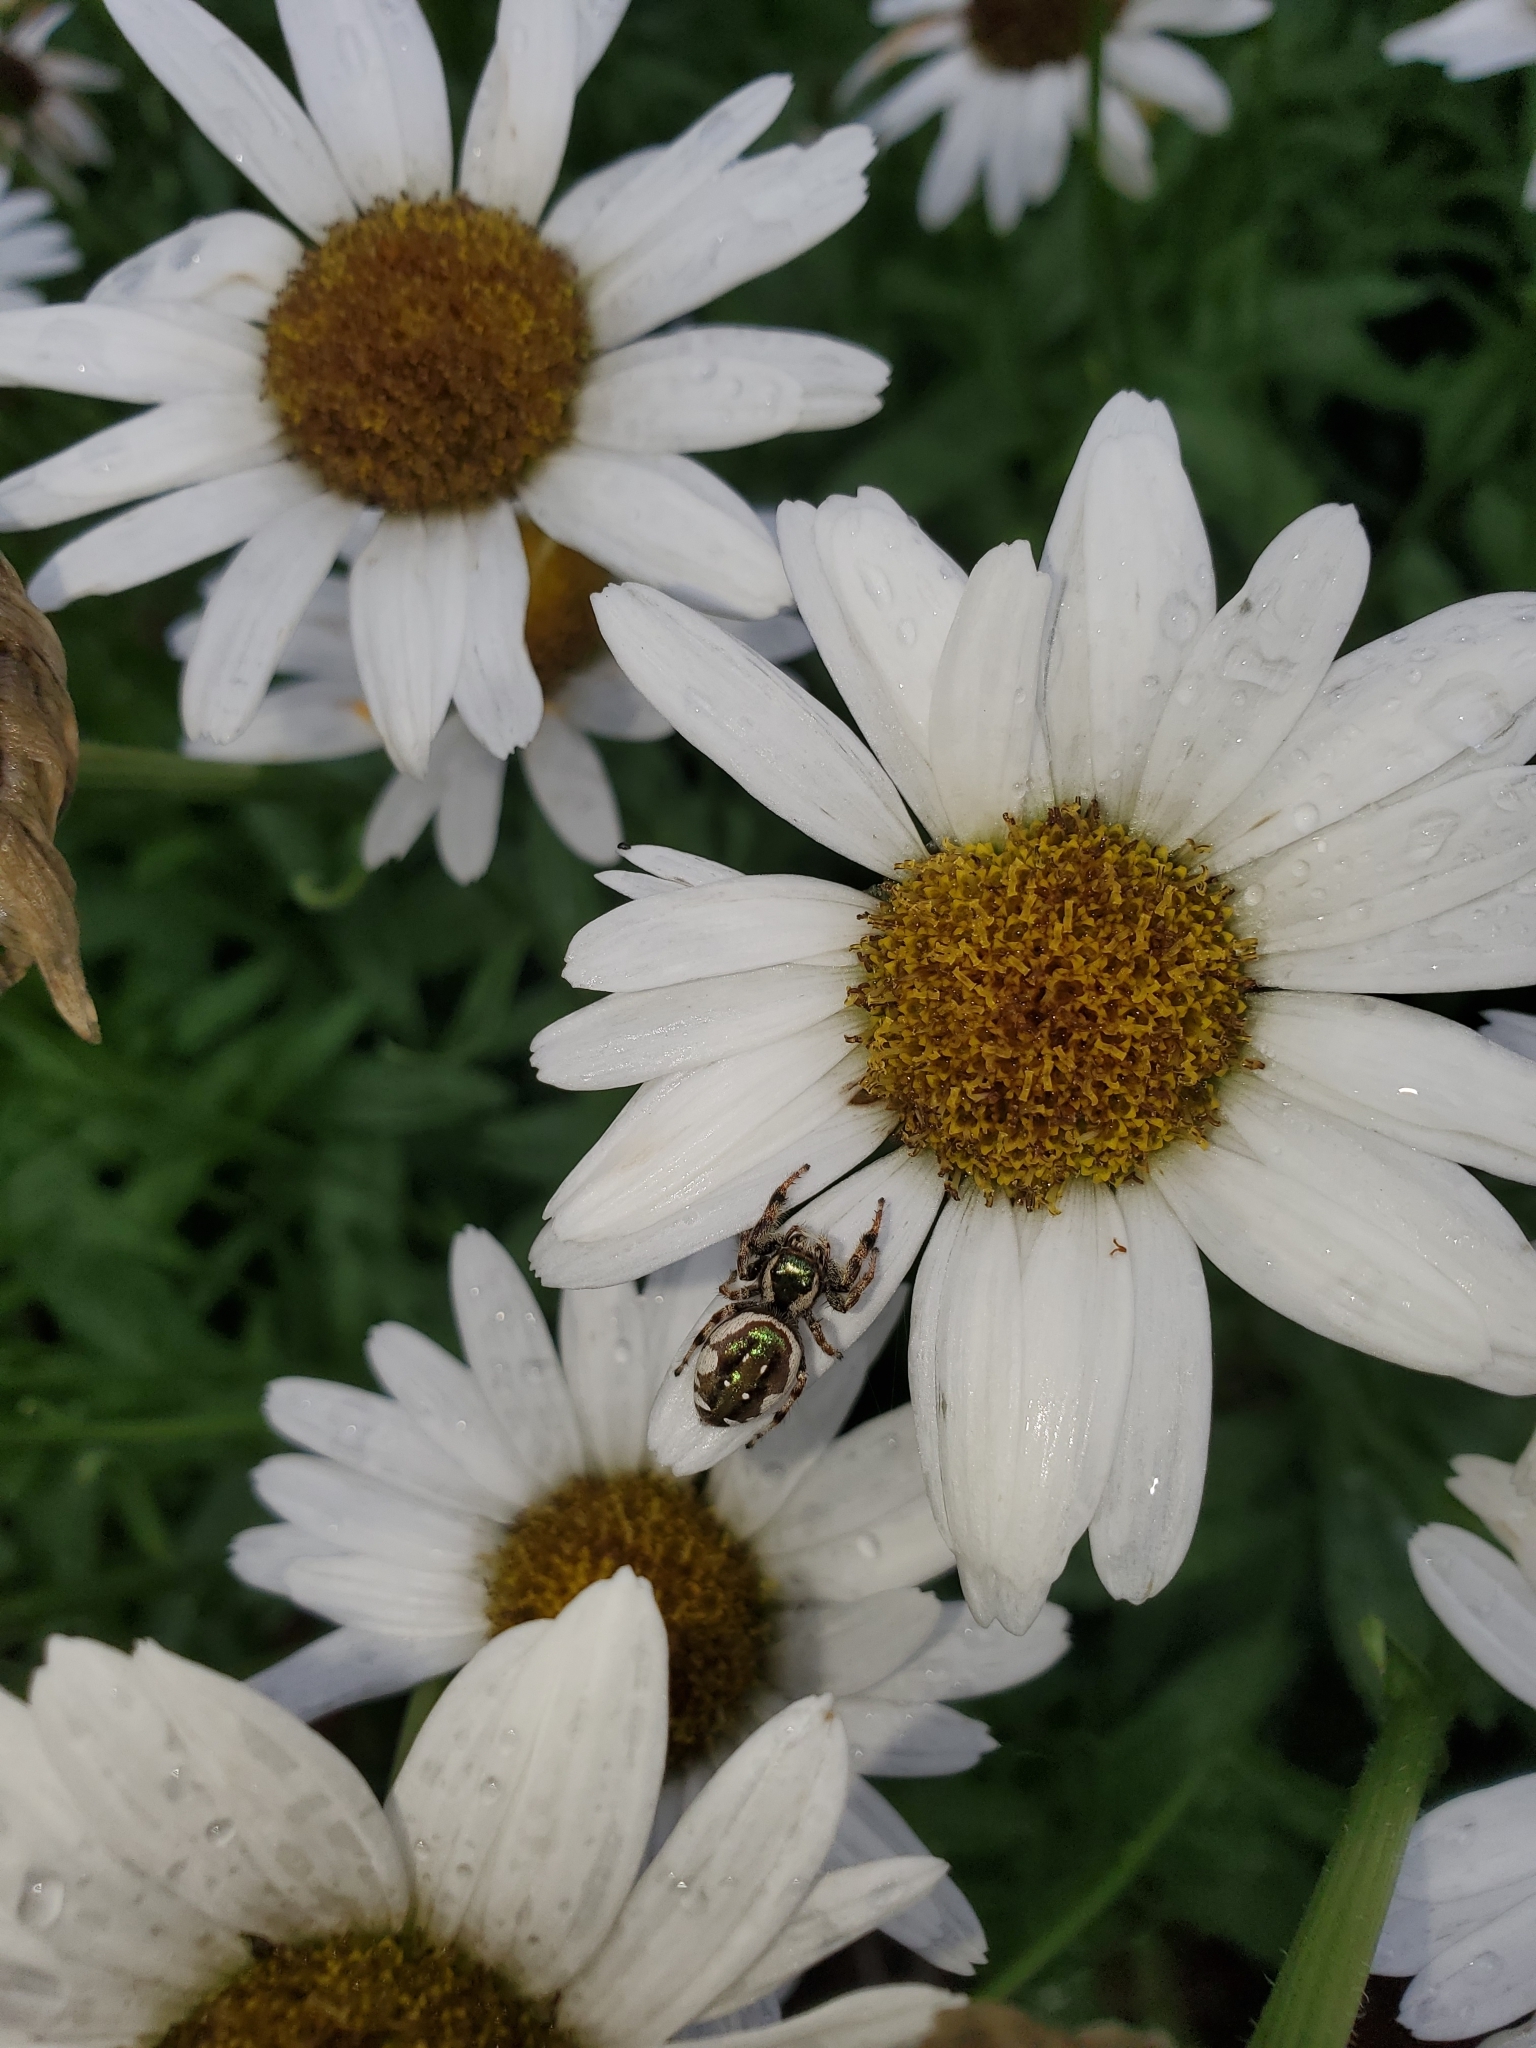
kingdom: Animalia
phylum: Arthropoda
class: Arachnida
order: Araneae
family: Salticidae
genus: Paraphidippus
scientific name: Paraphidippus aurantius
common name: Jumping spiders
